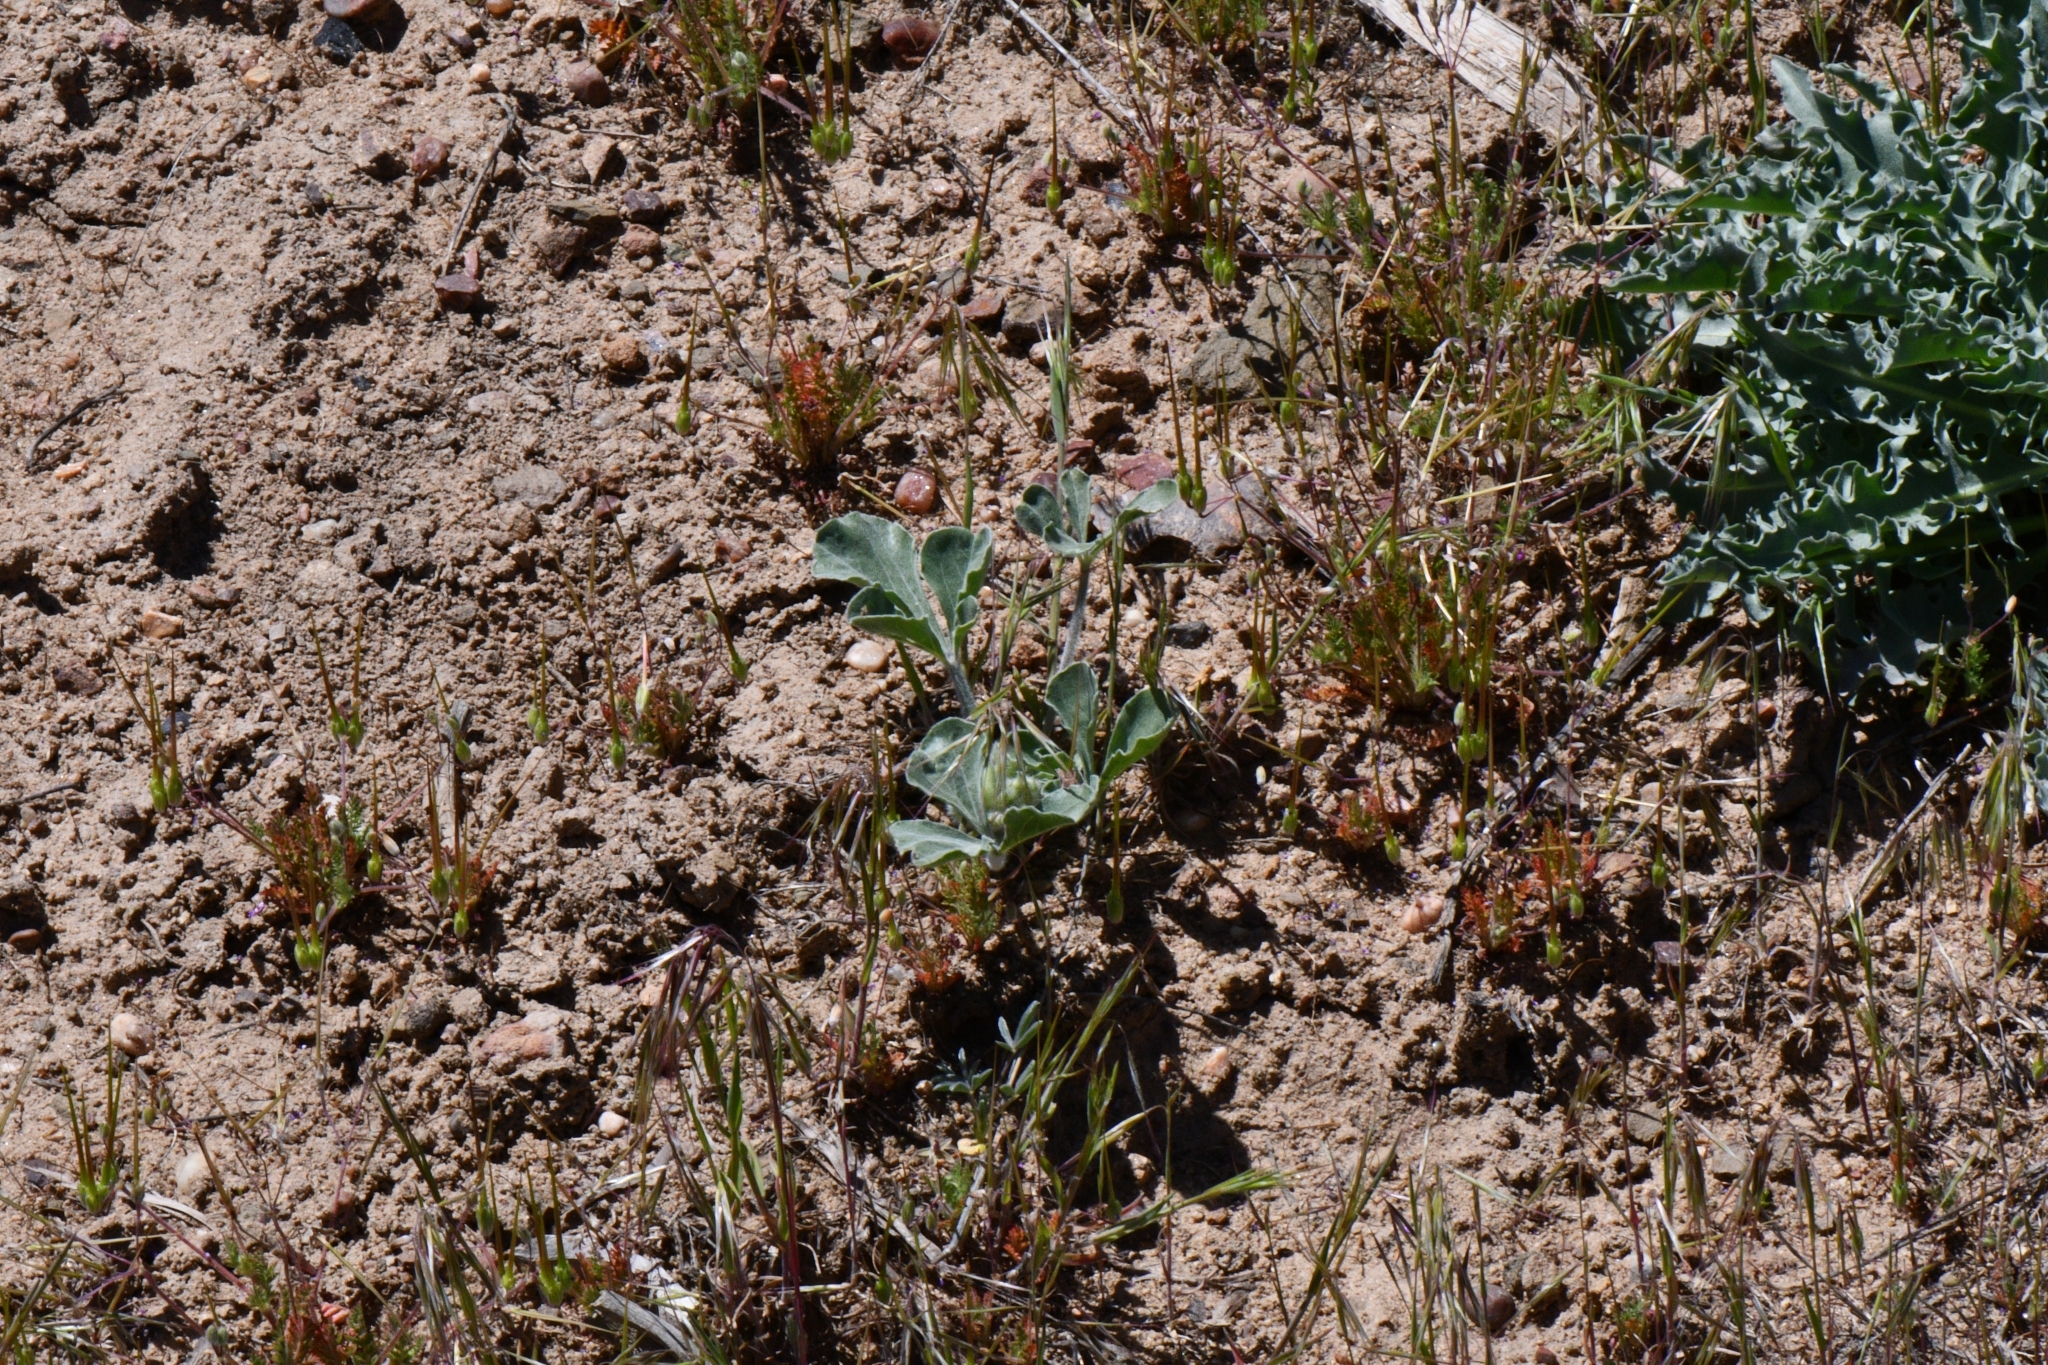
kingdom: Plantae
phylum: Tracheophyta
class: Magnoliopsida
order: Fabales
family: Fabaceae
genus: Pediomelum
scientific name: Pediomelum mephiticum
